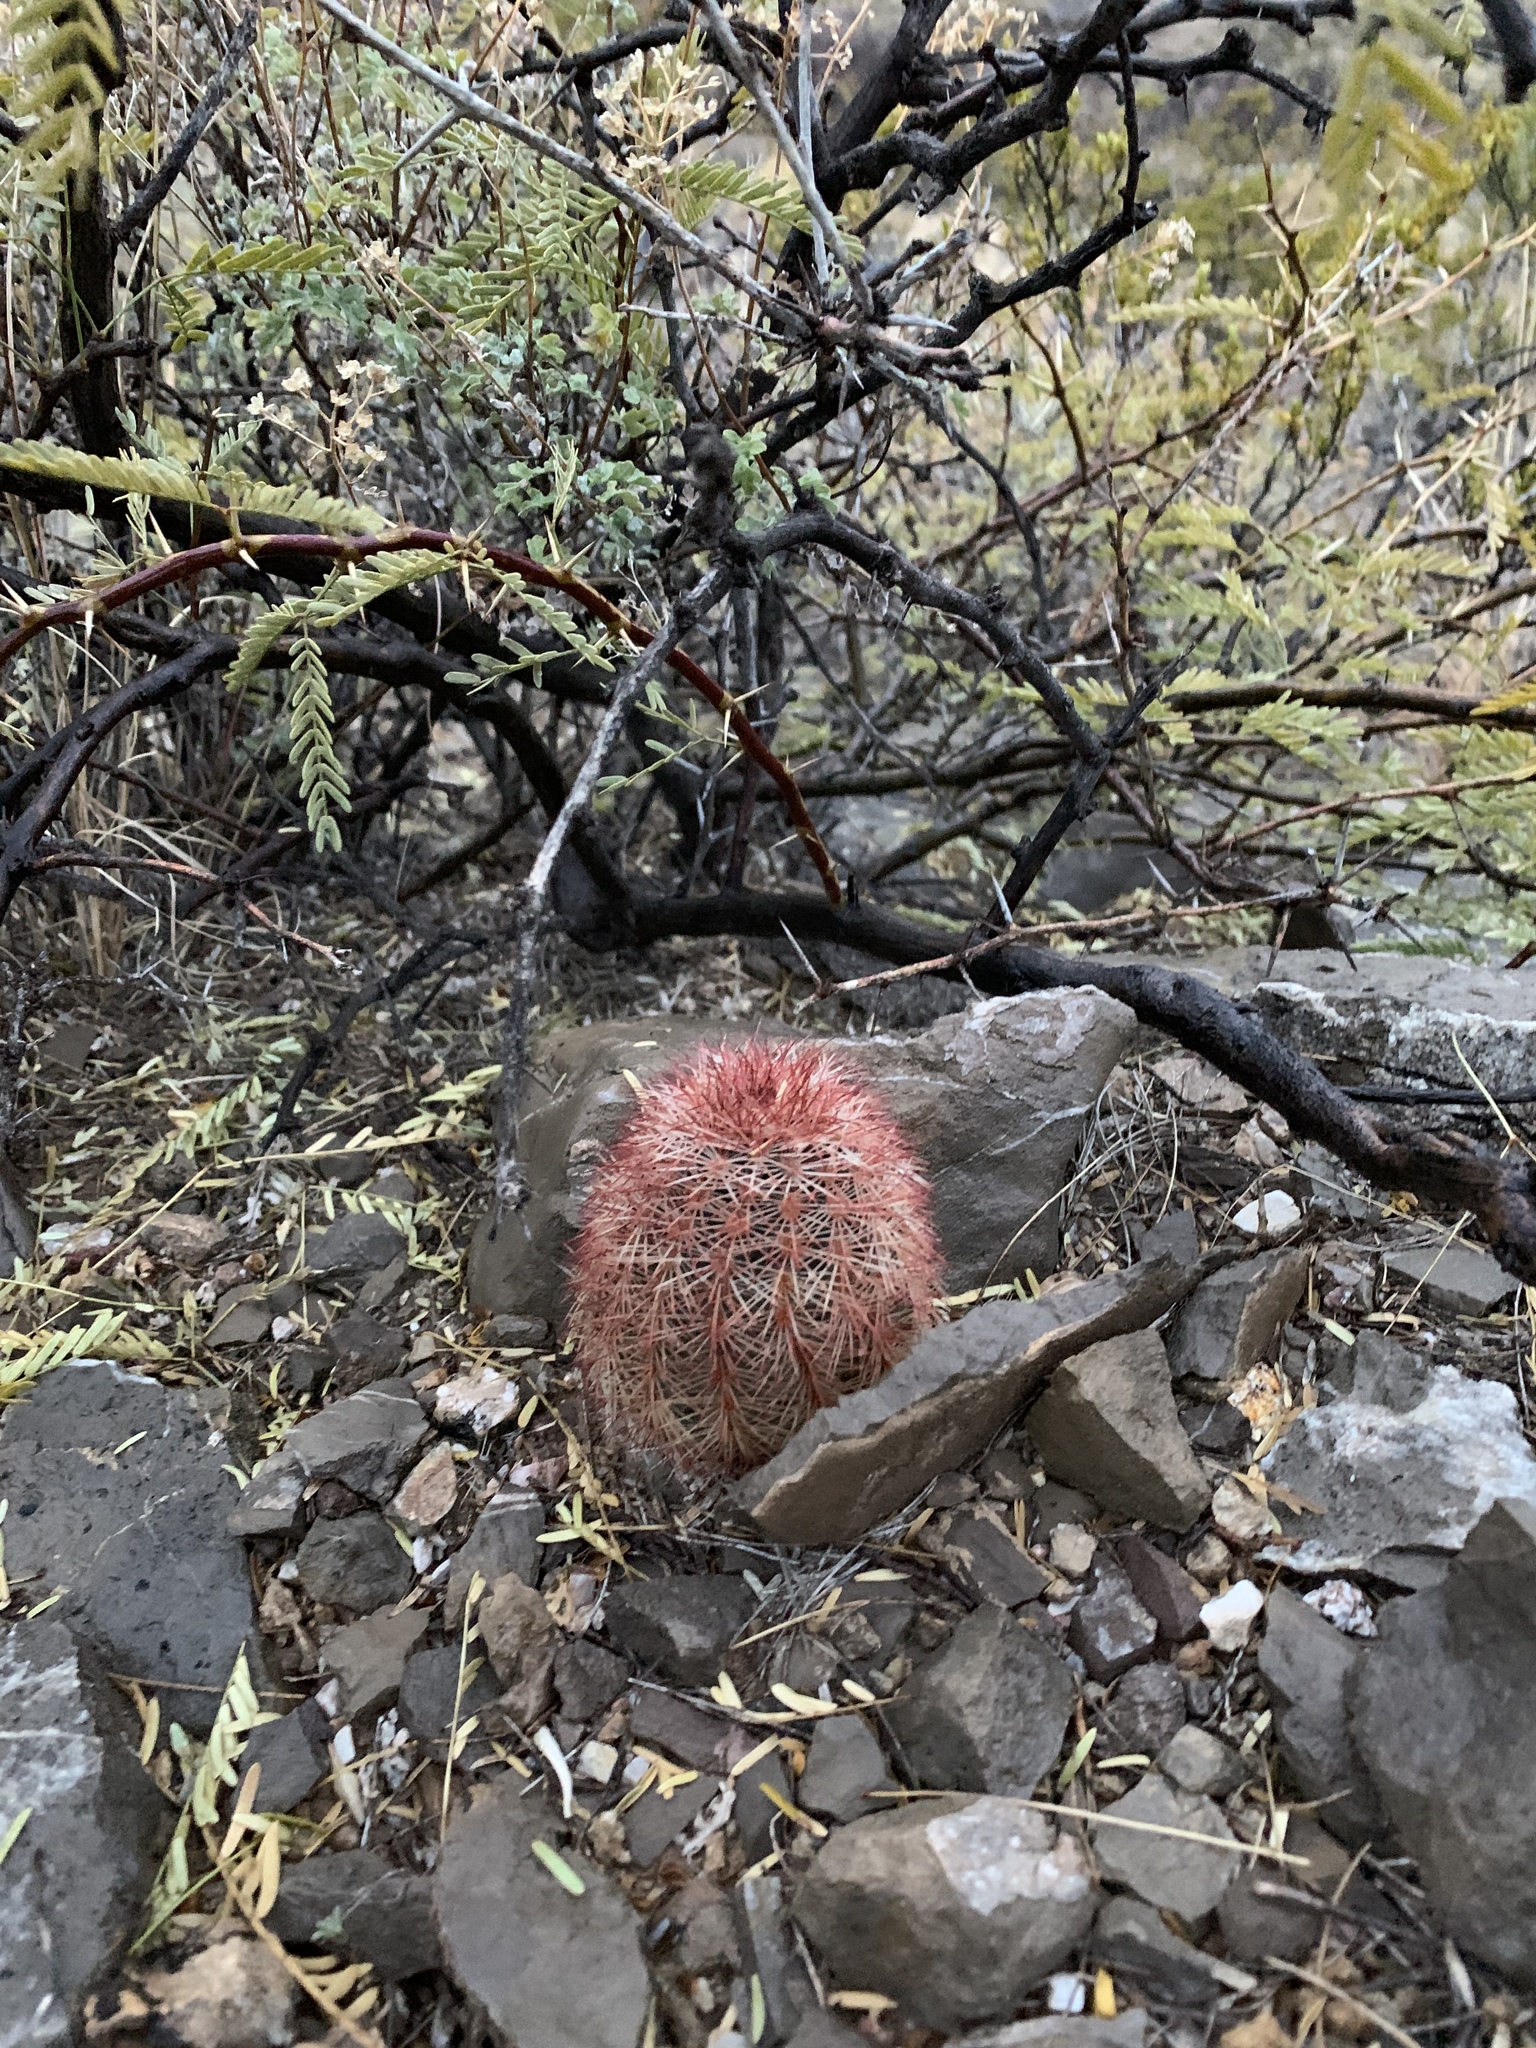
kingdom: Plantae
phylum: Tracheophyta
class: Magnoliopsida
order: Caryophyllales
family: Cactaceae
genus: Echinocereus
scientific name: Echinocereus dasyacanthus
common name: Spiny hedgehog cactus
